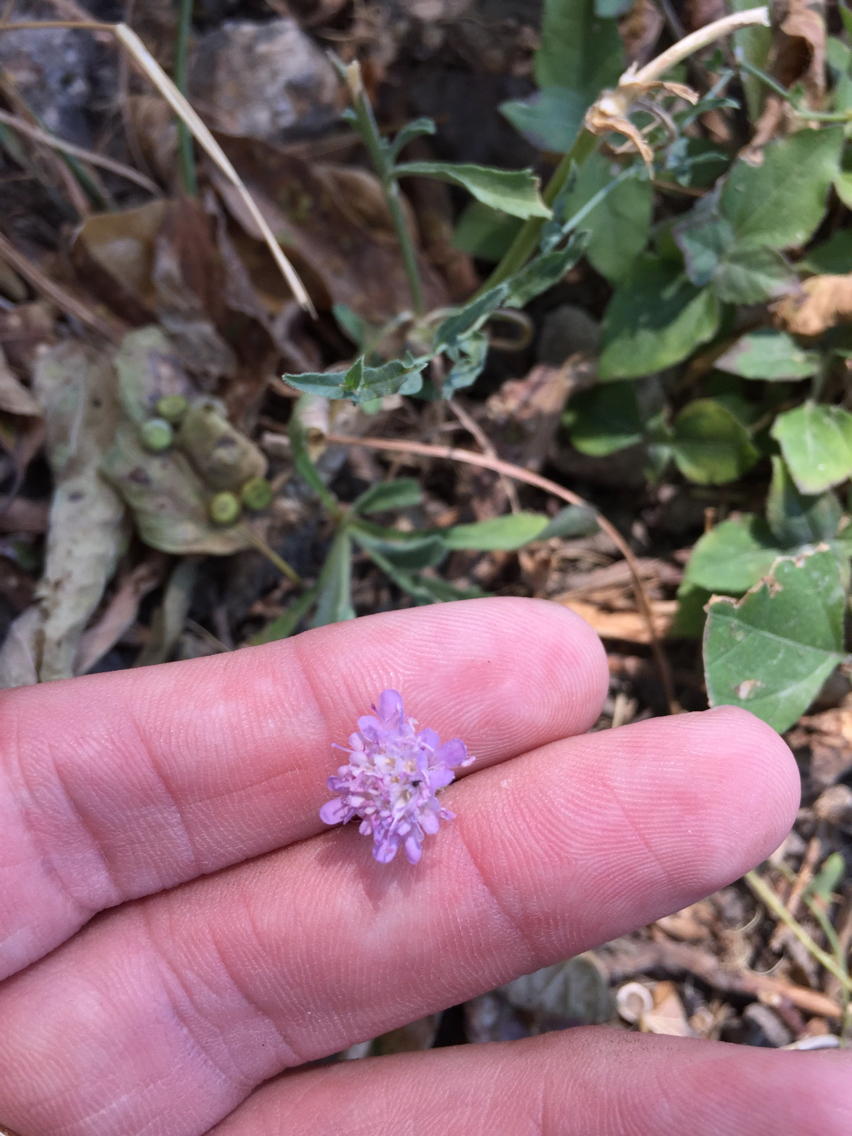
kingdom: Plantae
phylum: Tracheophyta
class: Magnoliopsida
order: Dipsacales
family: Caprifoliaceae
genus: Sixalix
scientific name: Sixalix atropurpurea
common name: Sweet scabious
